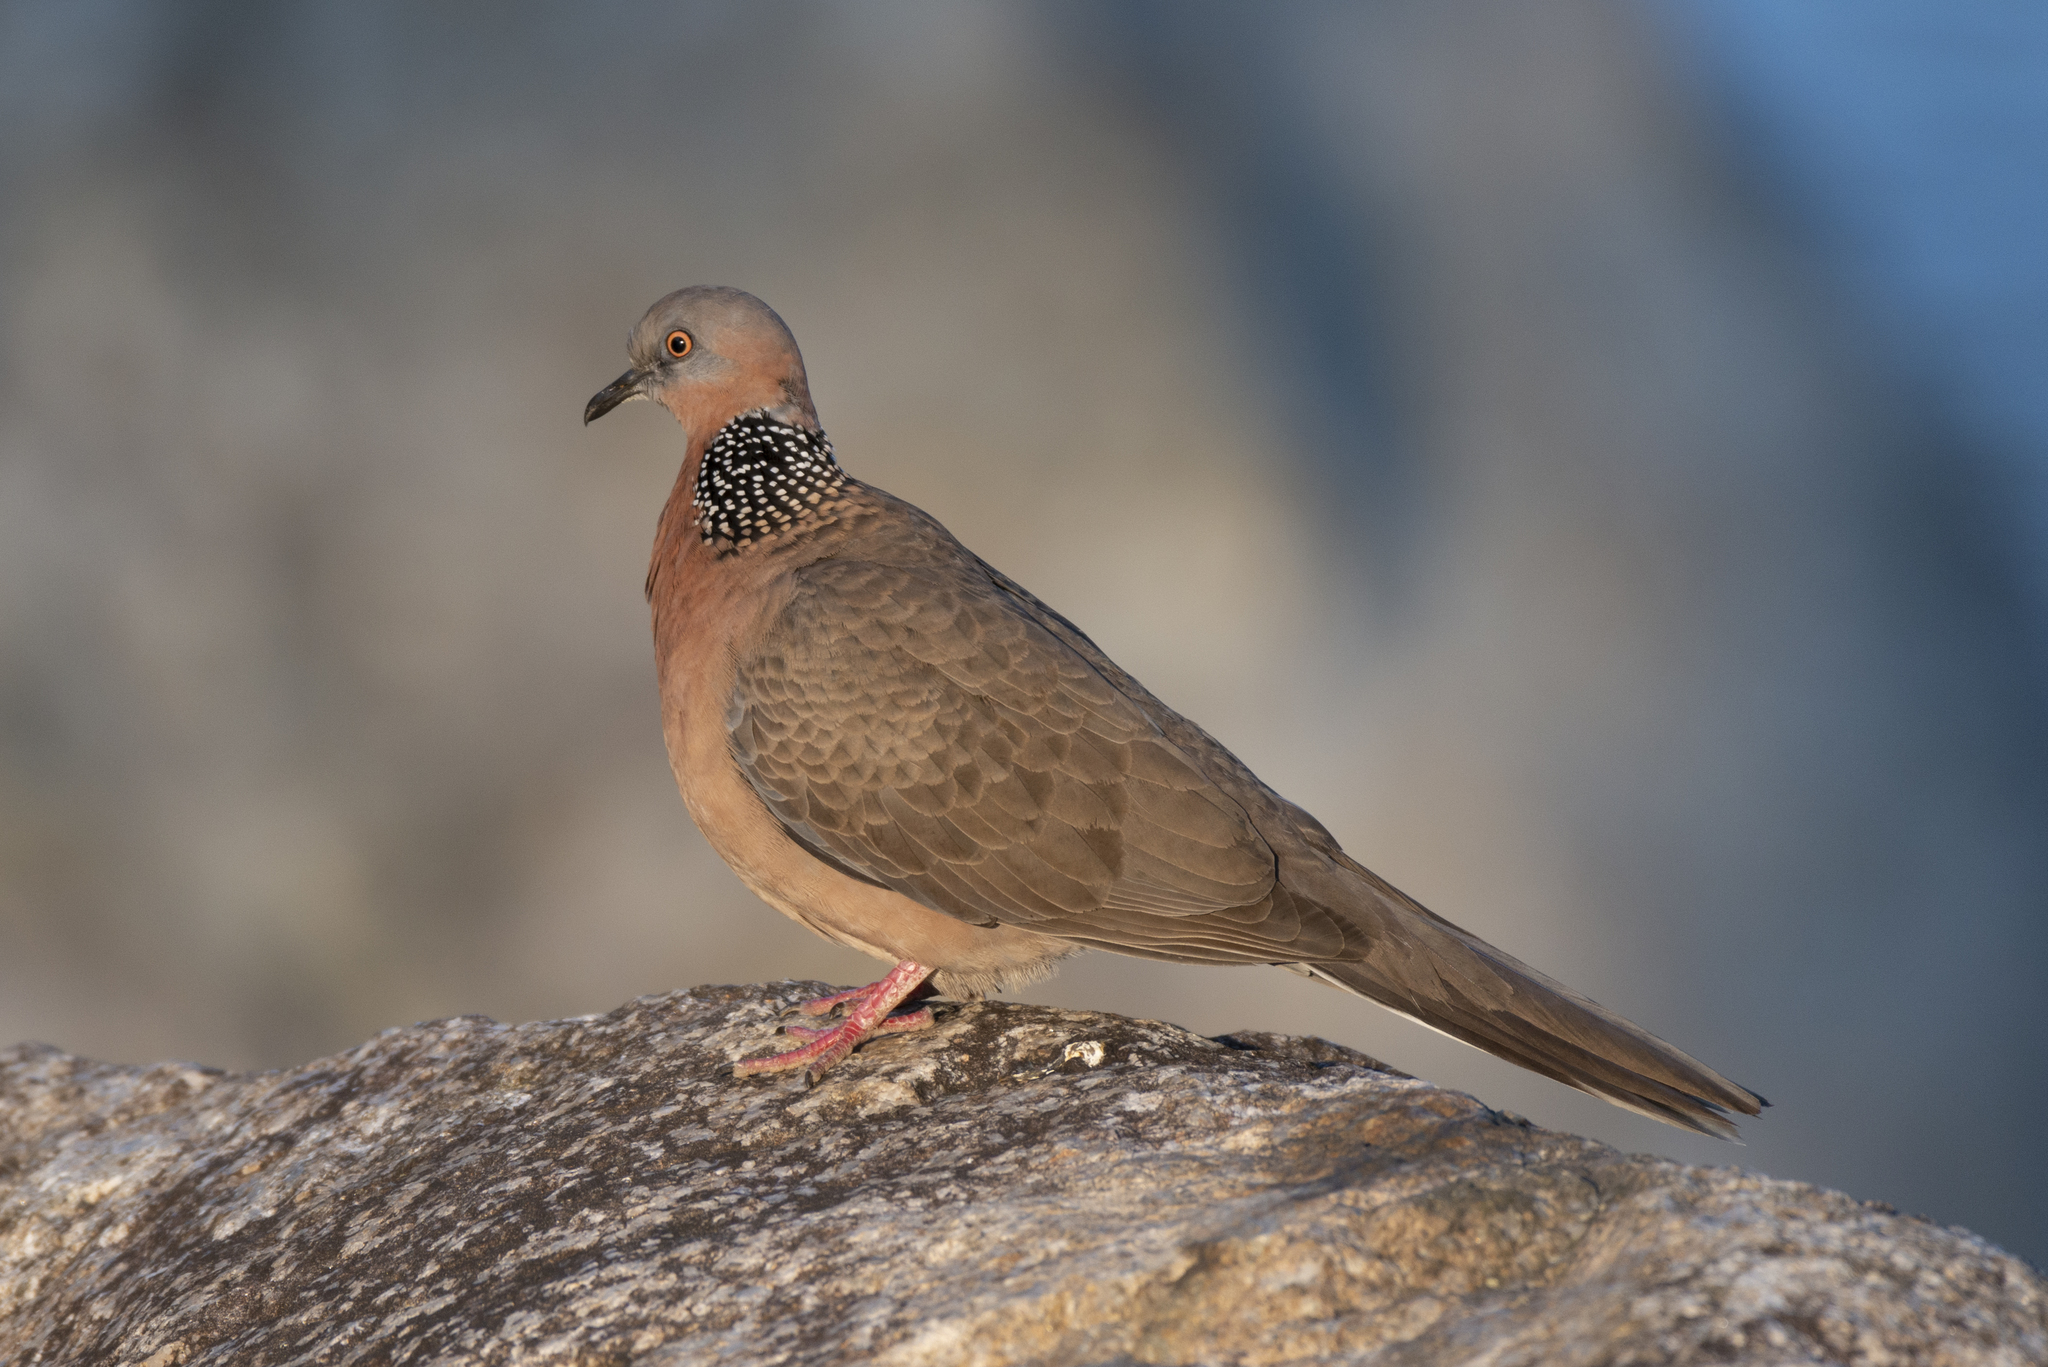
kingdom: Animalia
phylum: Chordata
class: Aves
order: Columbiformes
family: Columbidae
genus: Spilopelia
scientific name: Spilopelia chinensis
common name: Spotted dove
